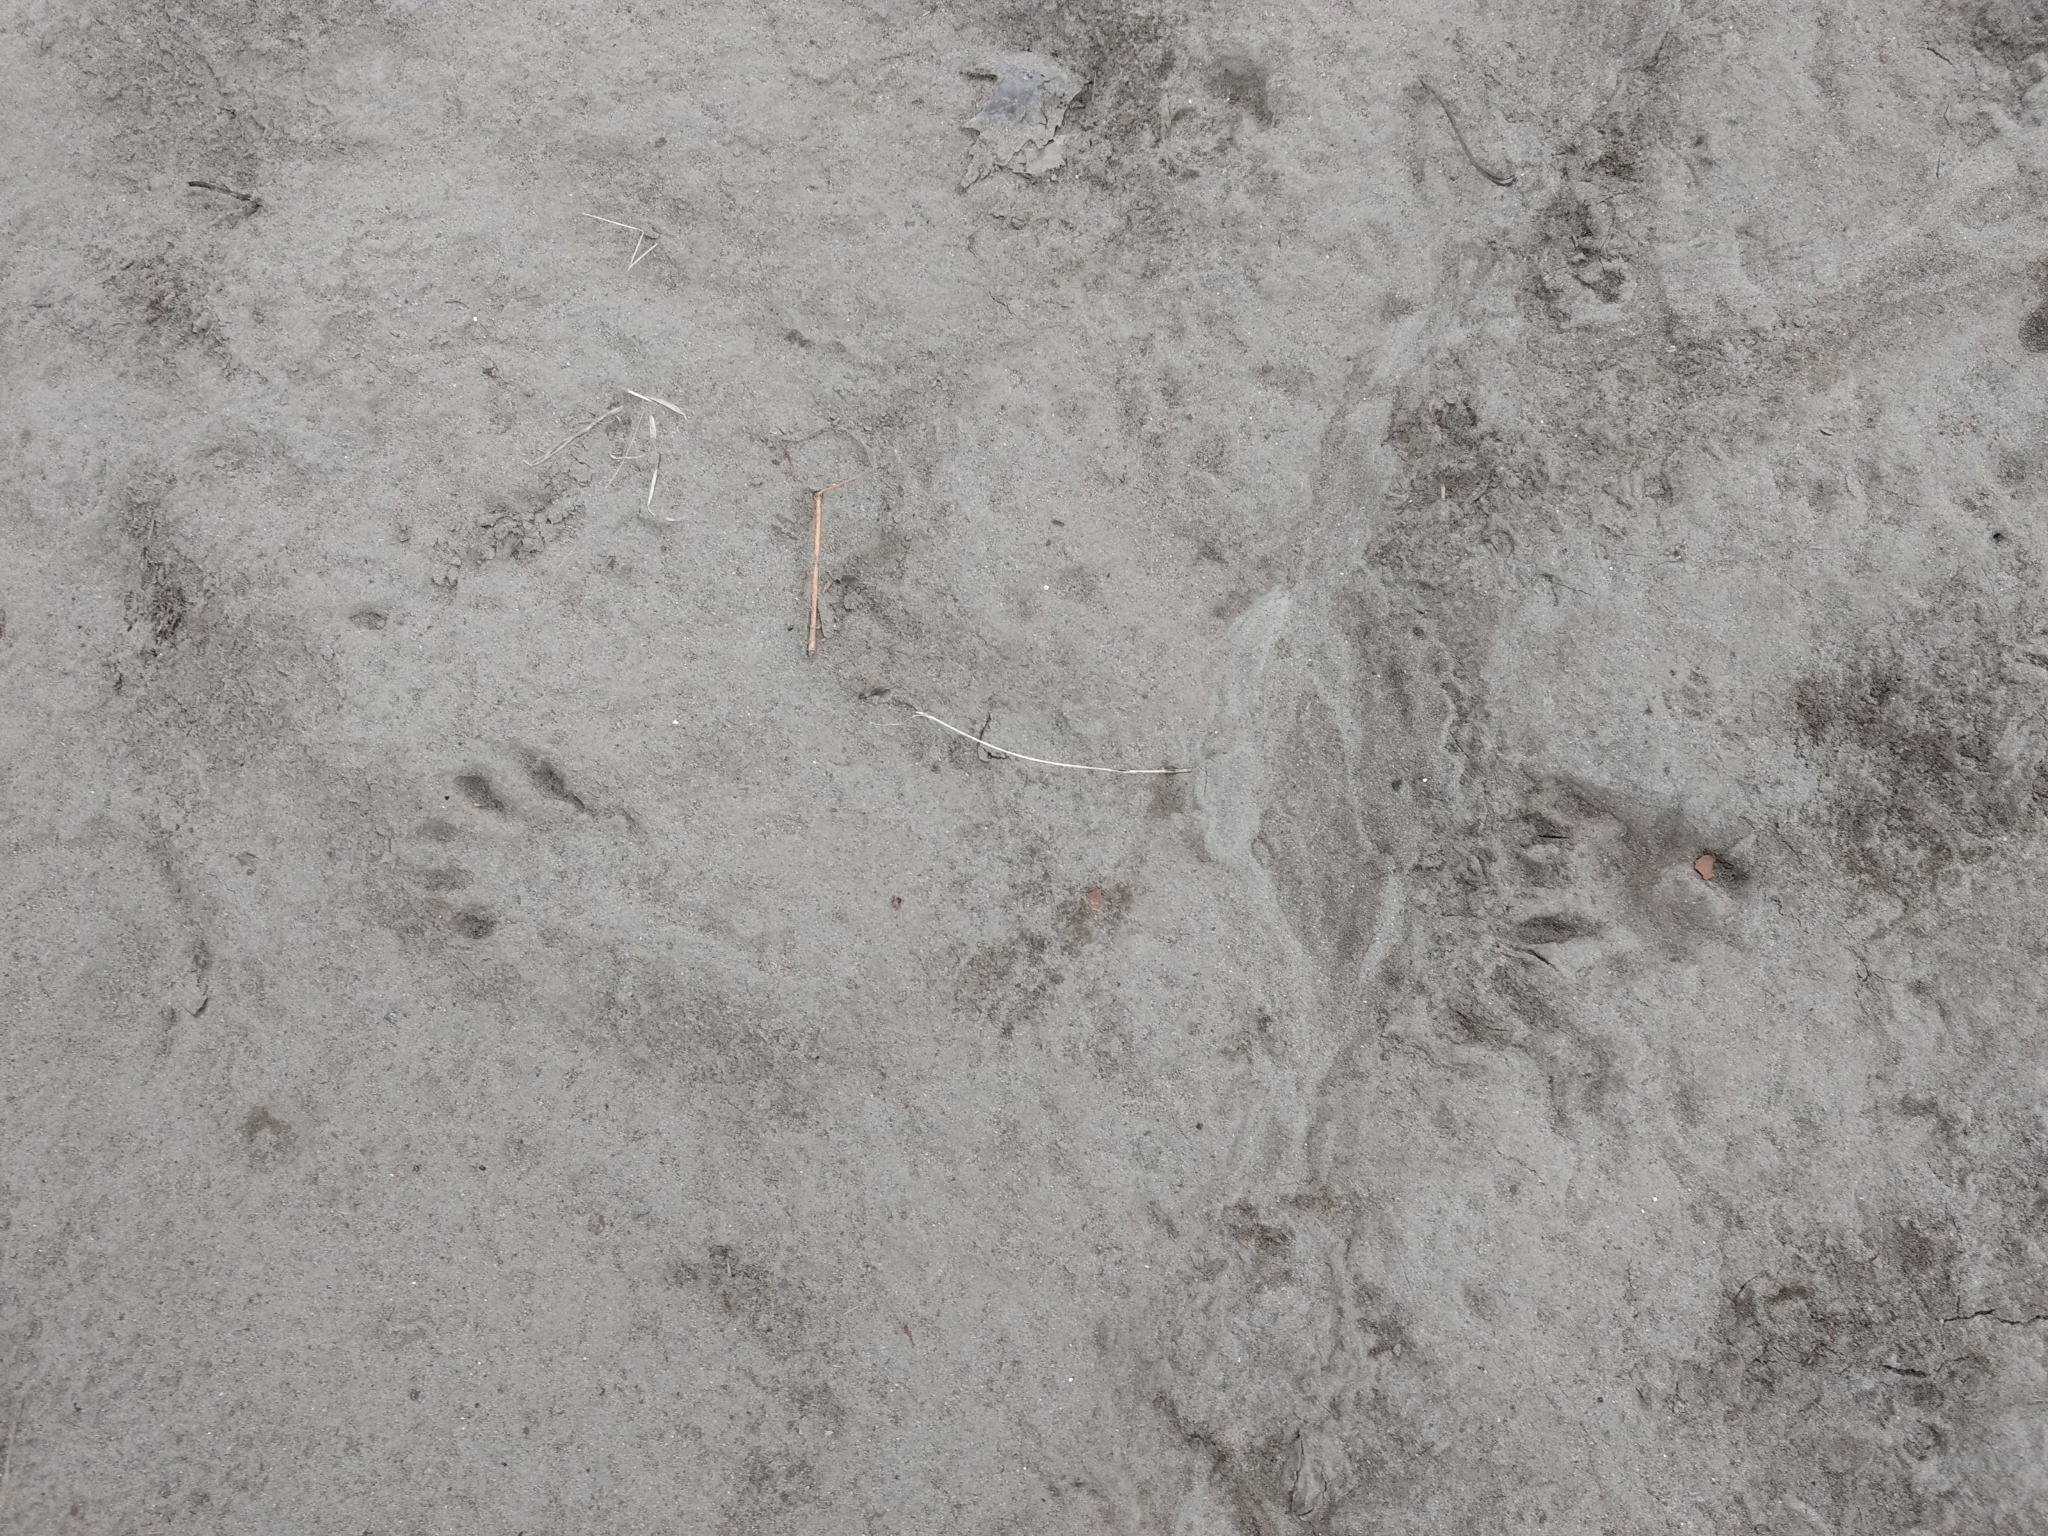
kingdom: Animalia
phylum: Chordata
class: Mammalia
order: Carnivora
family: Procyonidae
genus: Procyon
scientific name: Procyon lotor
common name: Raccoon
